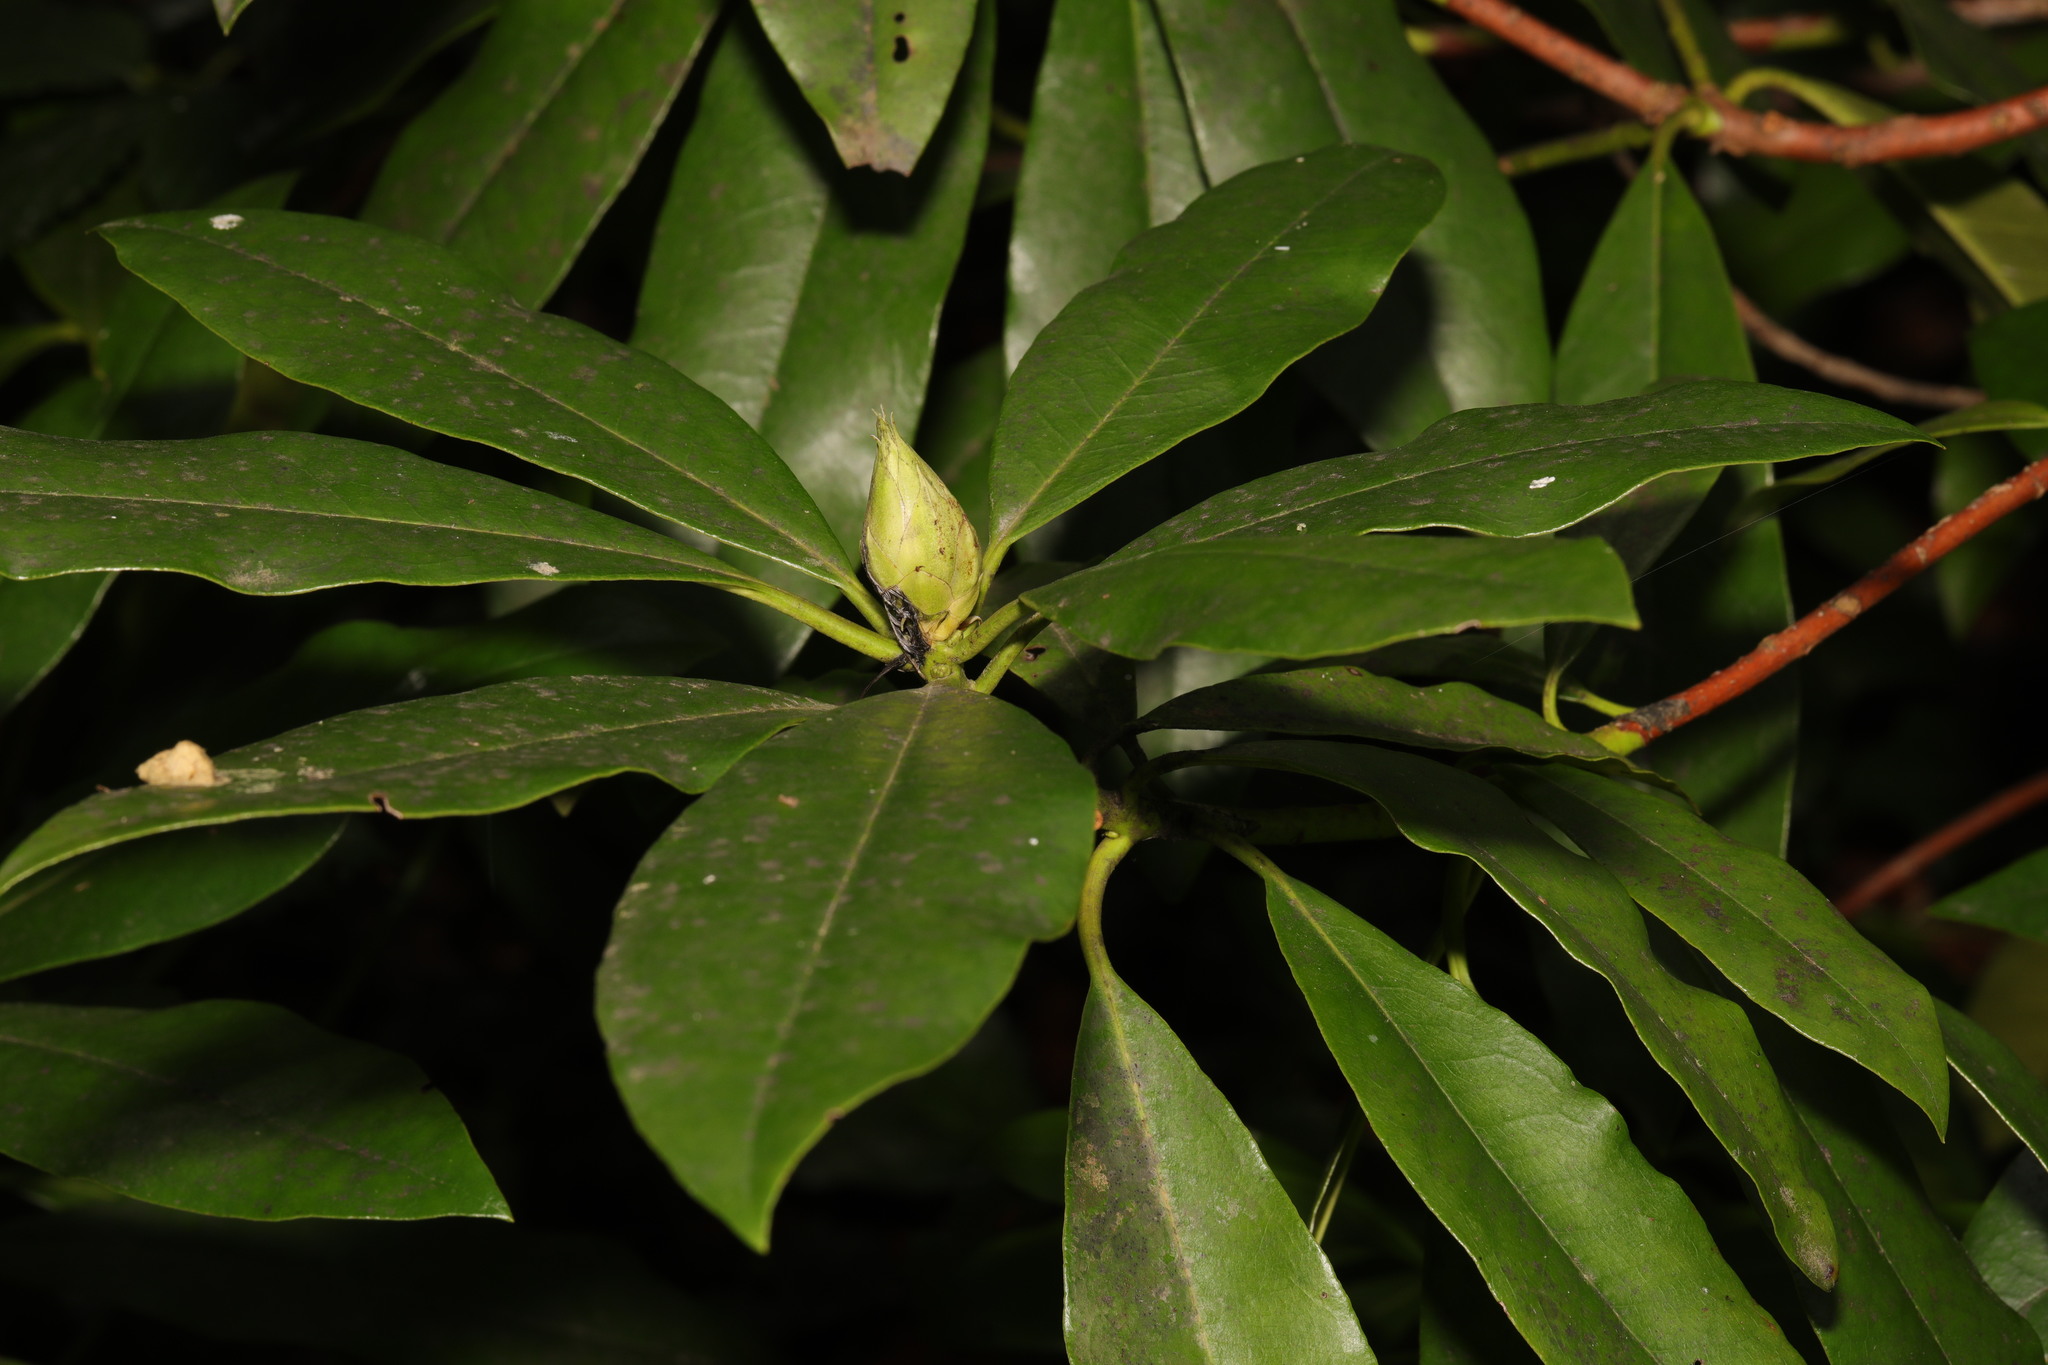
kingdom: Plantae
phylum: Tracheophyta
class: Magnoliopsida
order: Ericales
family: Ericaceae
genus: Rhododendron
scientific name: Rhododendron ponticum
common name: Rhododendron
